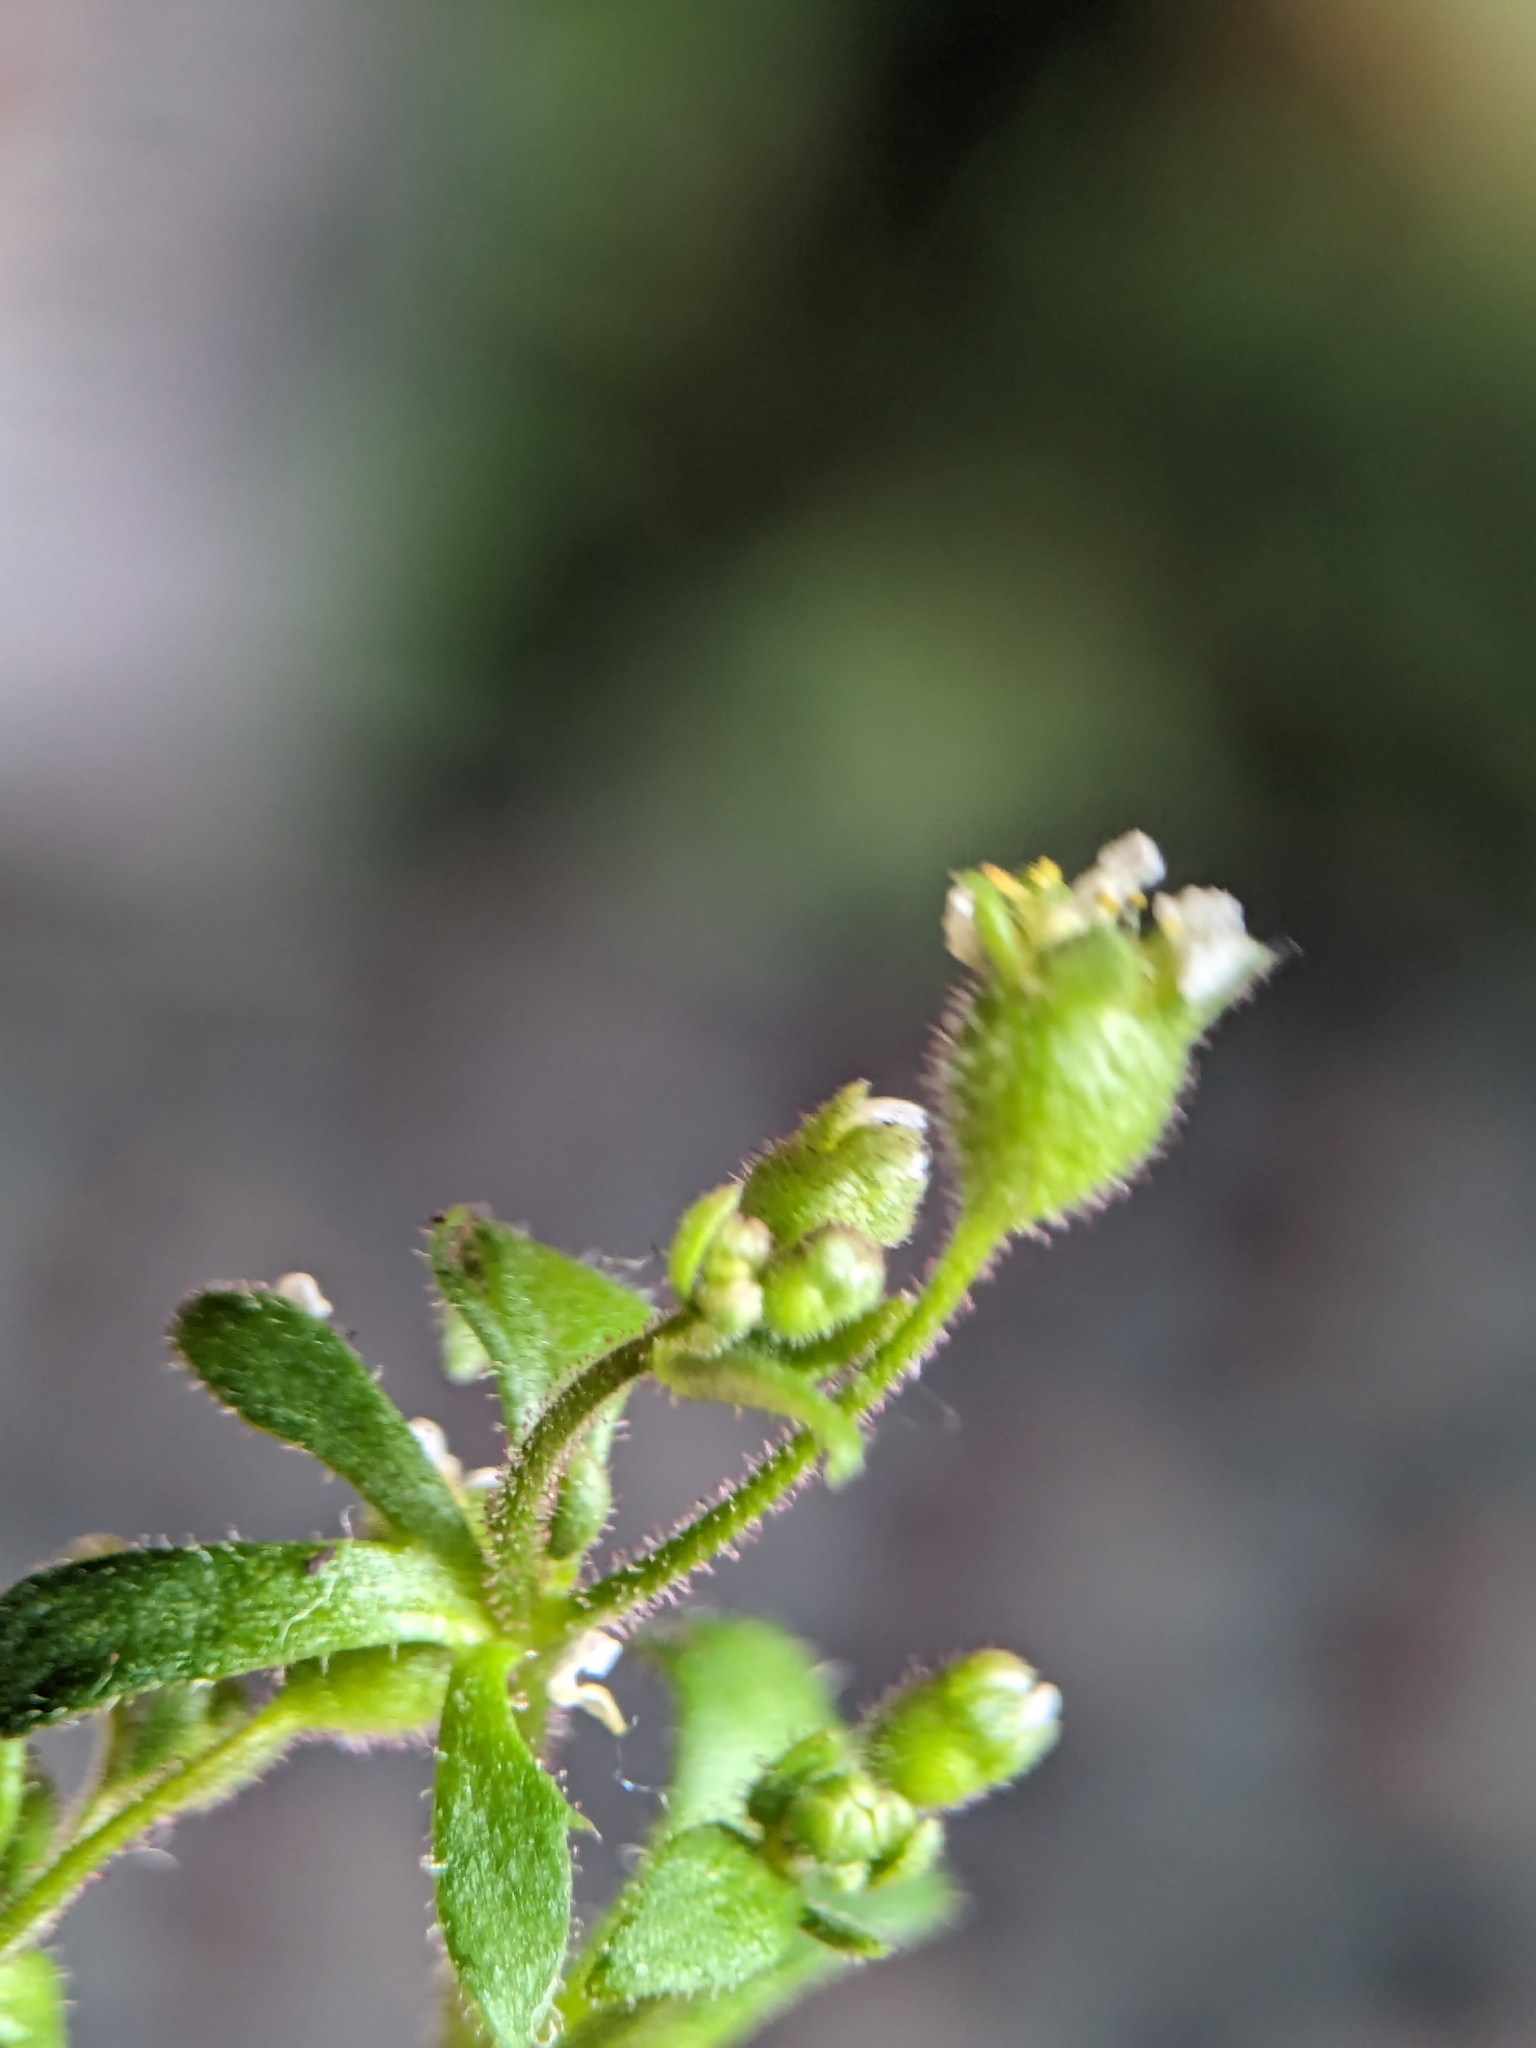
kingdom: Plantae
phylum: Tracheophyta
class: Magnoliopsida
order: Saxifragales
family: Saxifragaceae
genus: Saxifraga
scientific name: Saxifraga tridactylites
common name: Rue-leaved saxifrage
